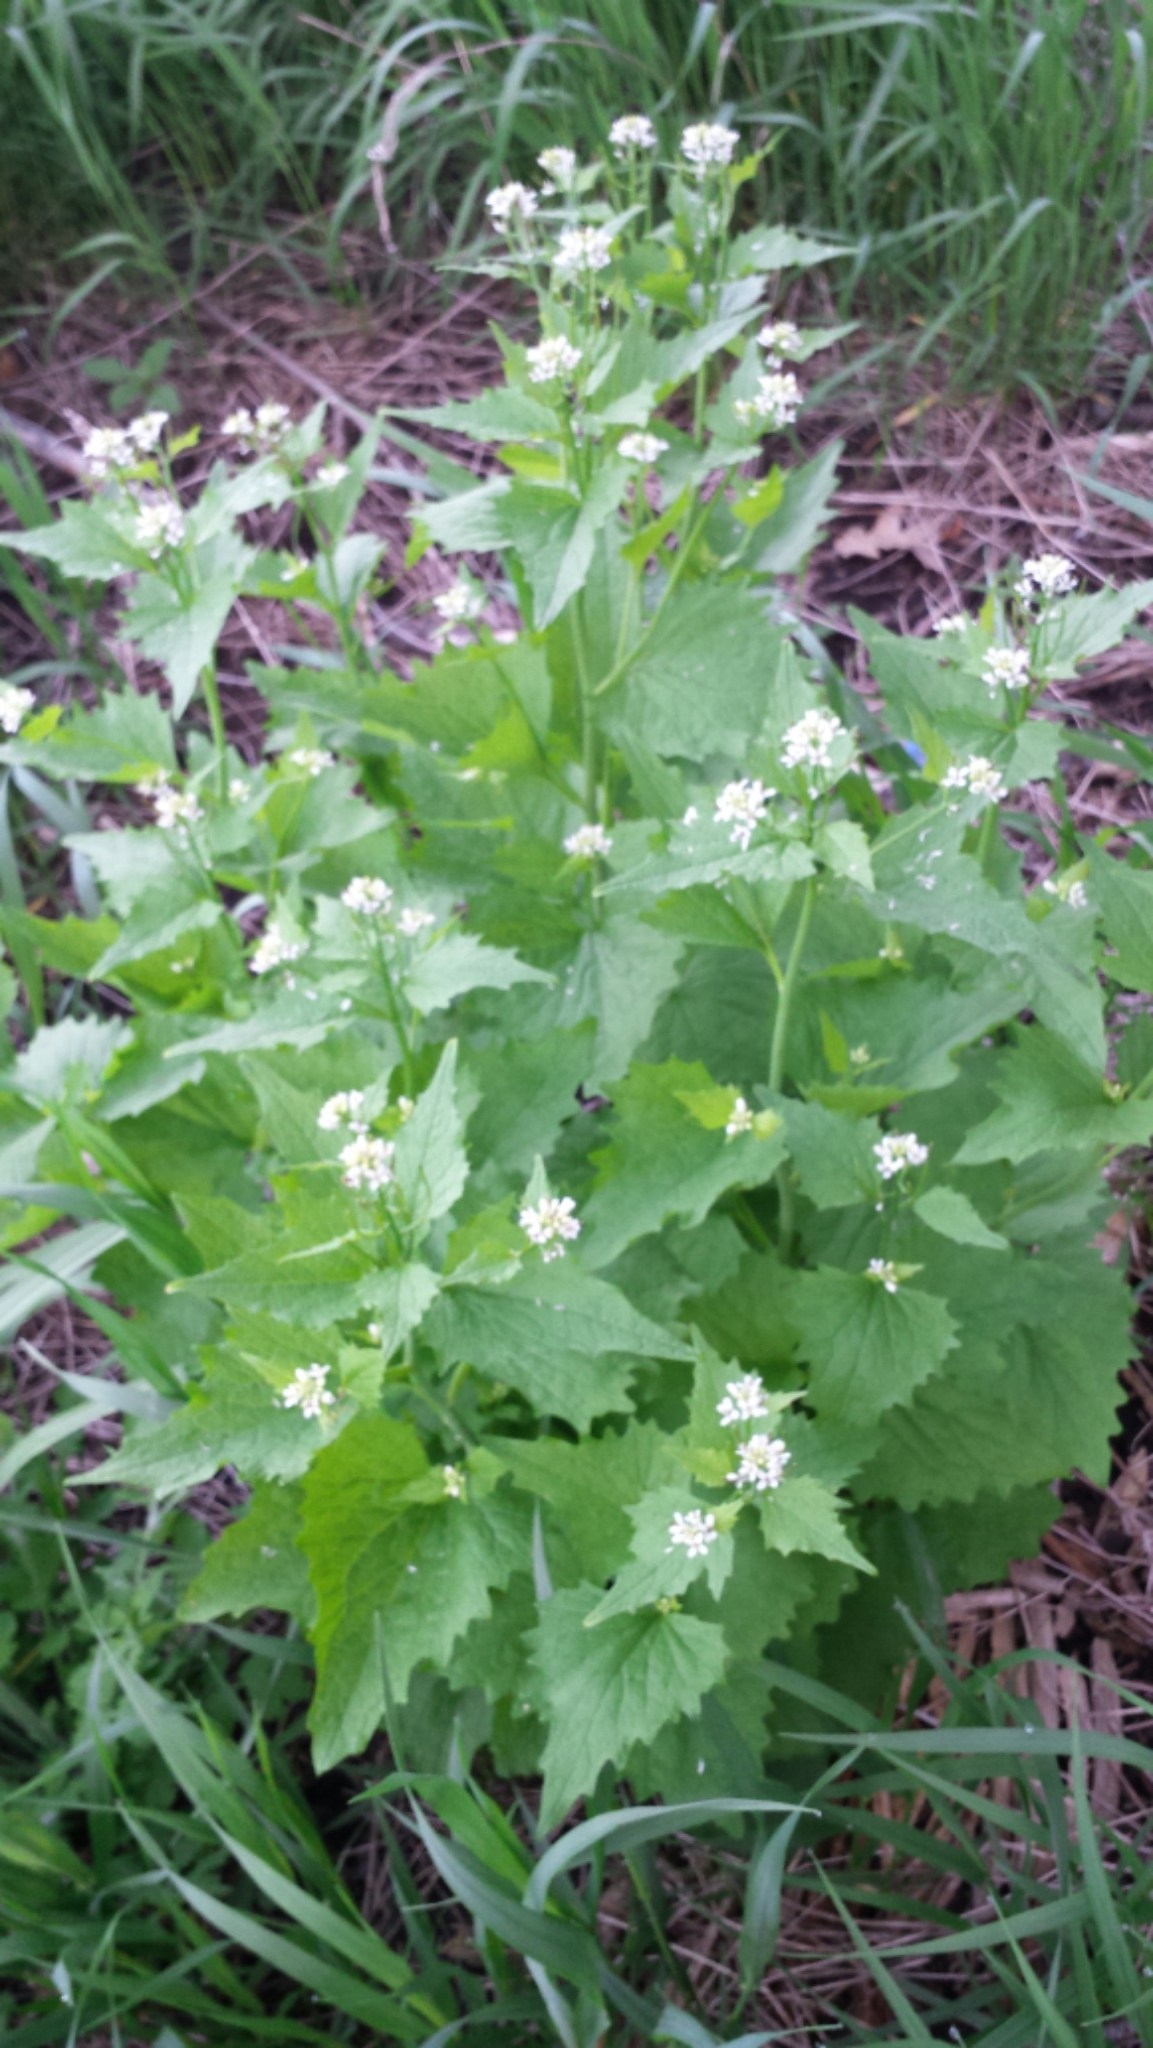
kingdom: Plantae
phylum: Tracheophyta
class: Magnoliopsida
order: Brassicales
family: Brassicaceae
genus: Alliaria
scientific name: Alliaria petiolata
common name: Garlic mustard
